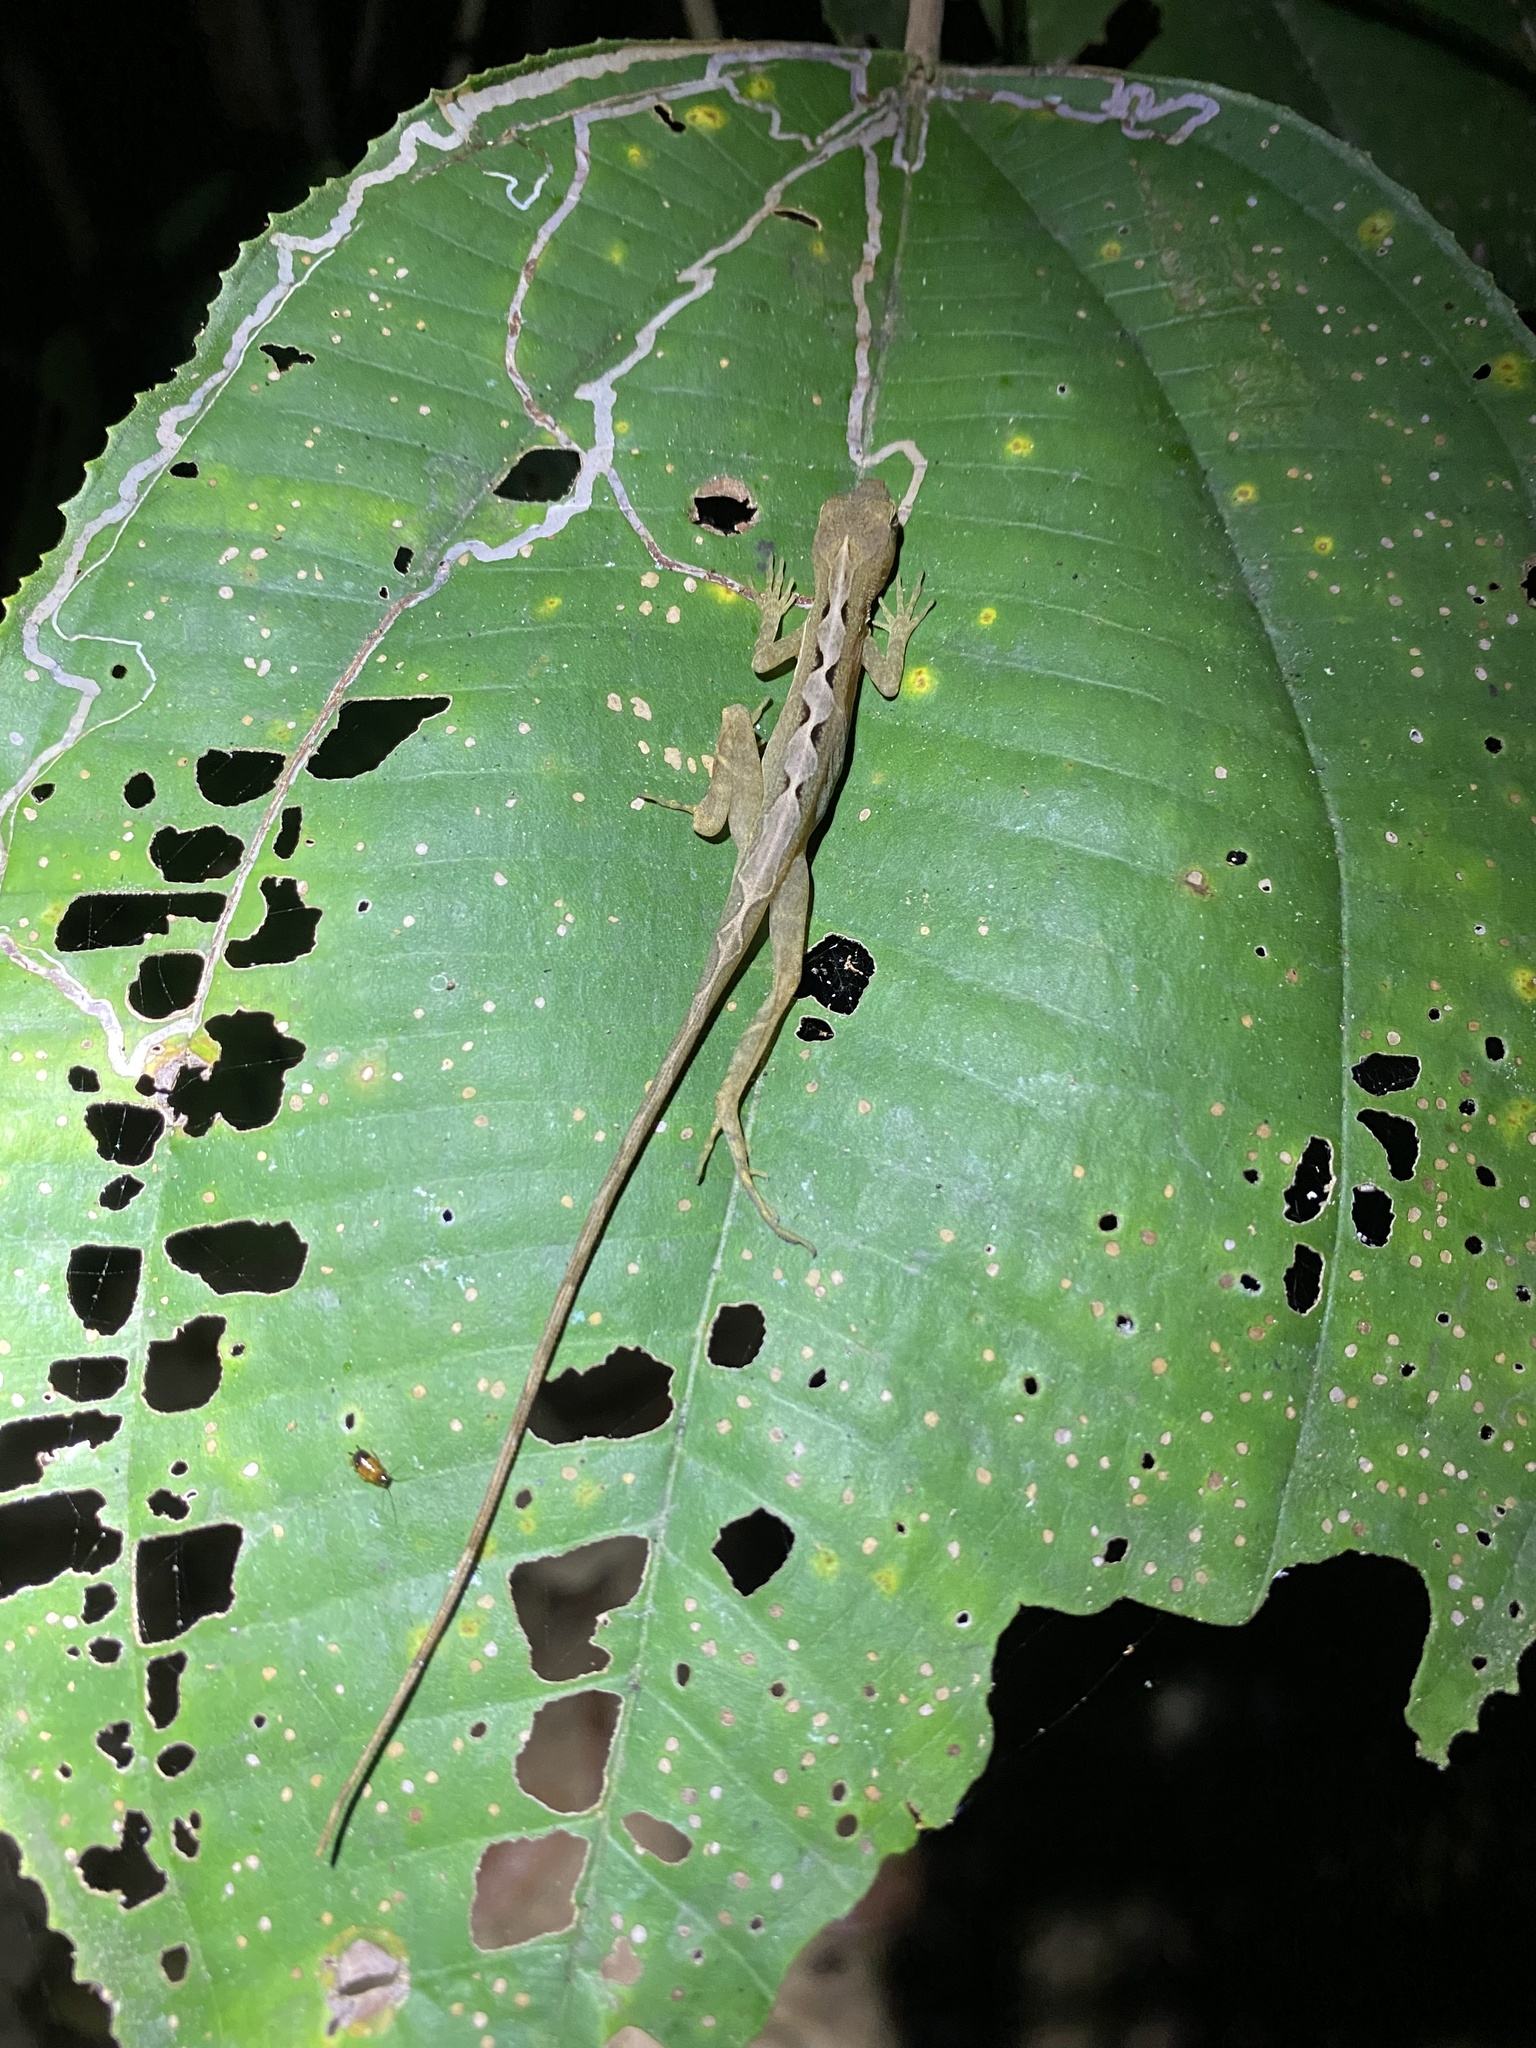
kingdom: Animalia
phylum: Chordata
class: Squamata
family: Dactyloidae
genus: Anolis
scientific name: Anolis osa
